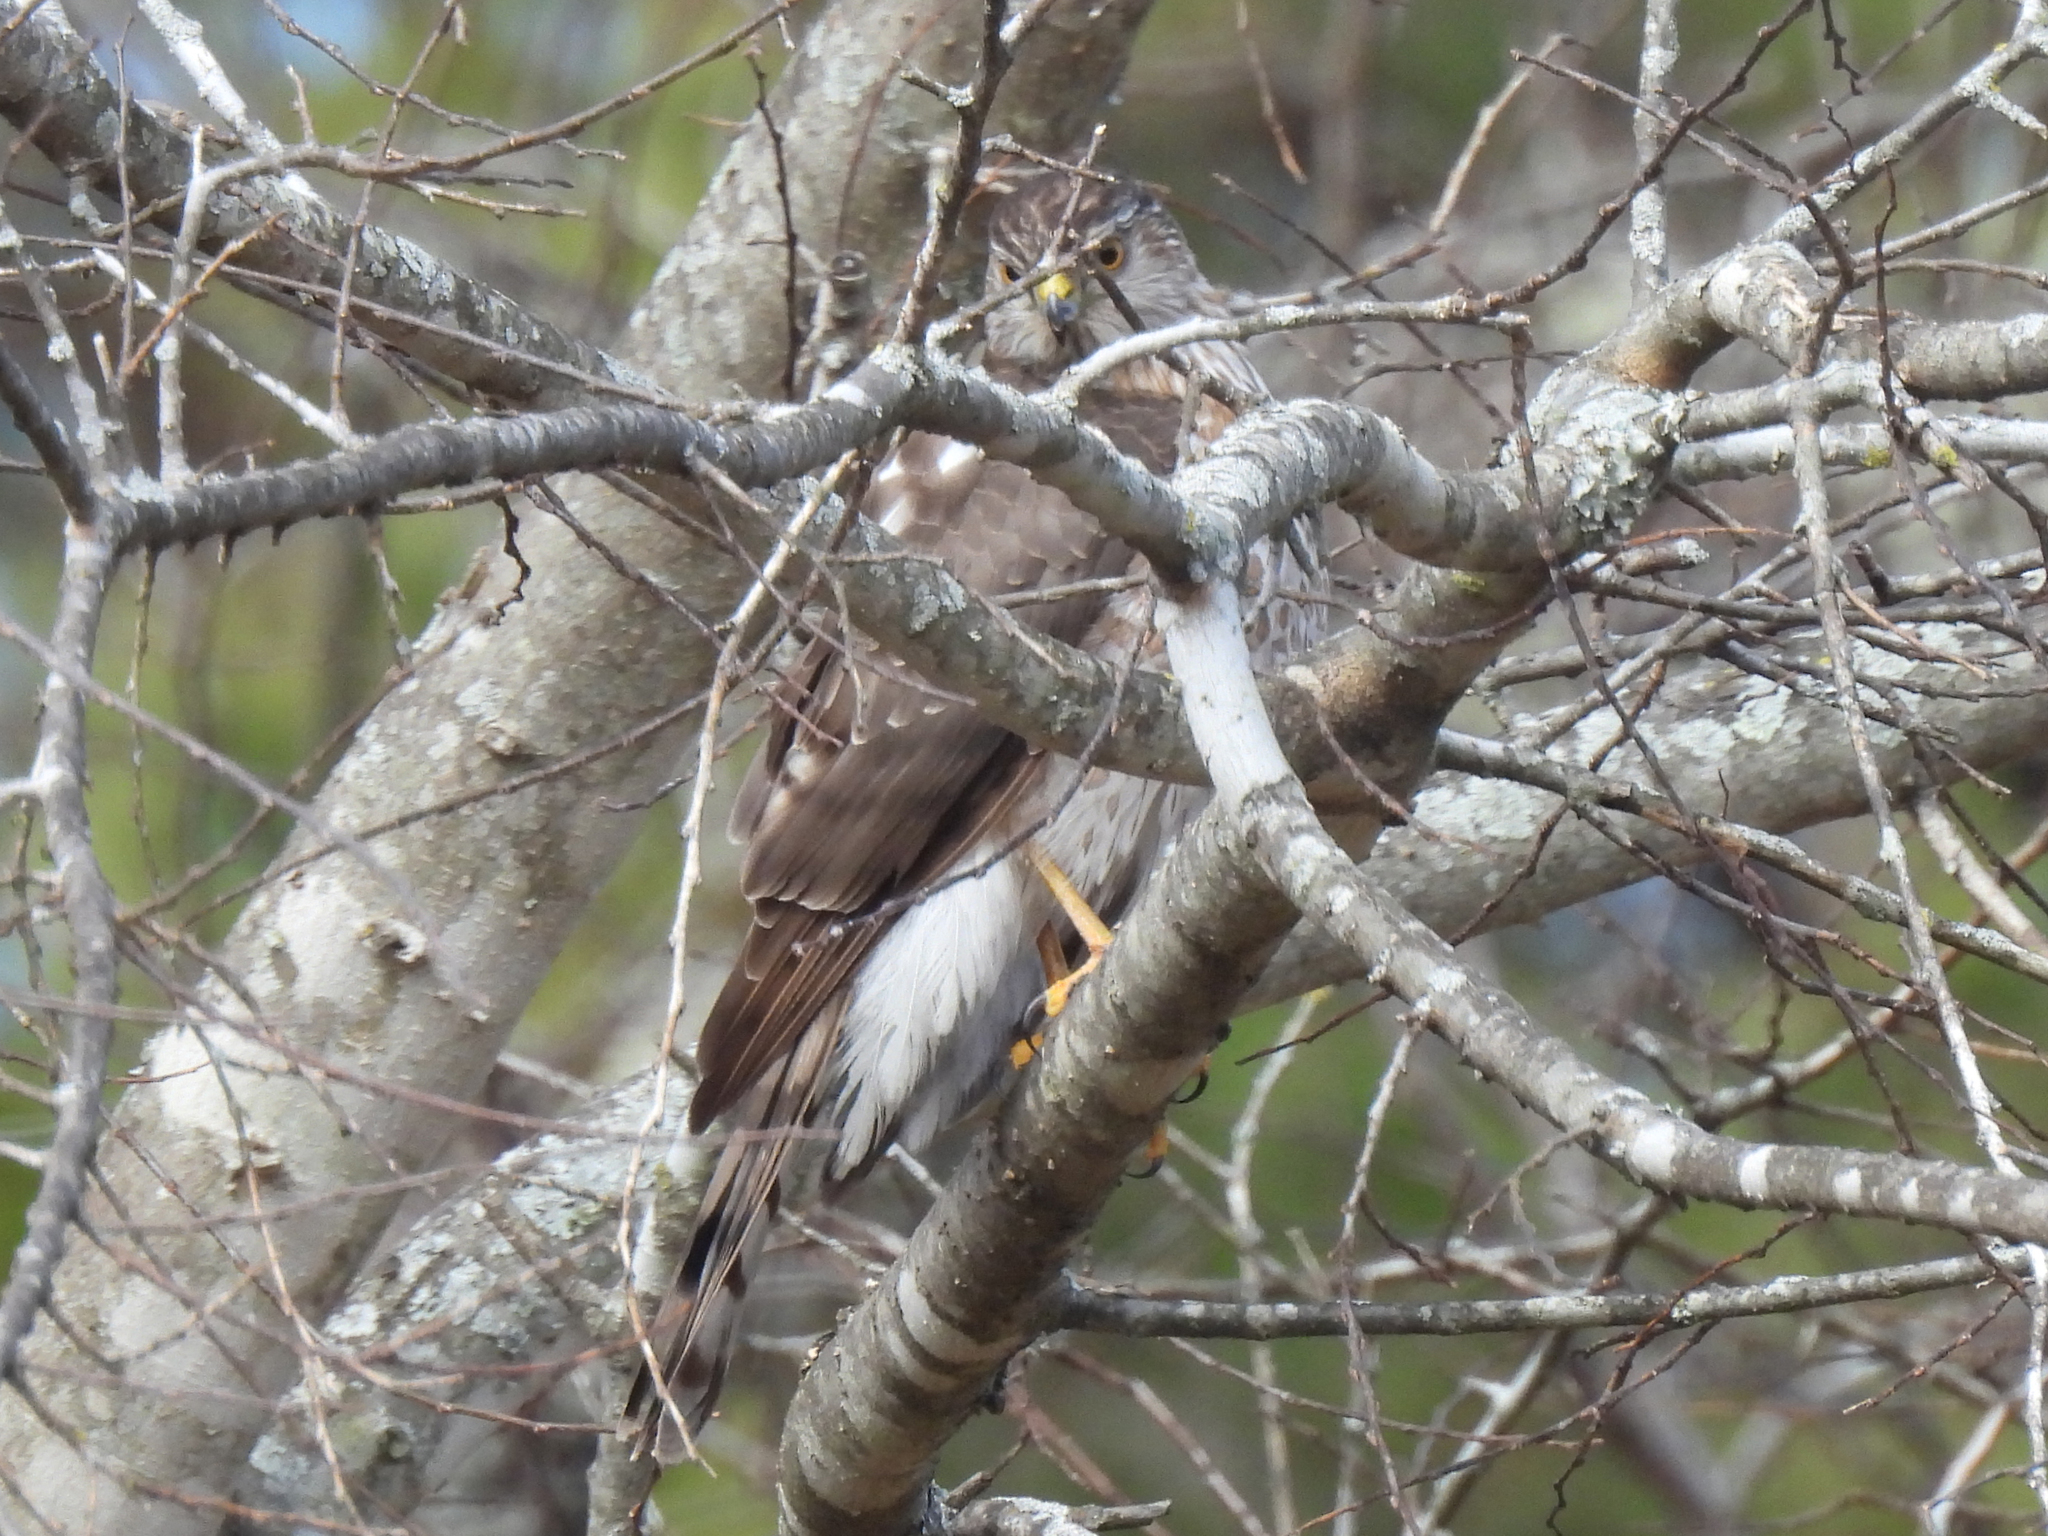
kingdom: Animalia
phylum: Chordata
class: Aves
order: Accipitriformes
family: Accipitridae
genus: Accipiter
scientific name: Accipiter striatus
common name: Sharp-shinned hawk
